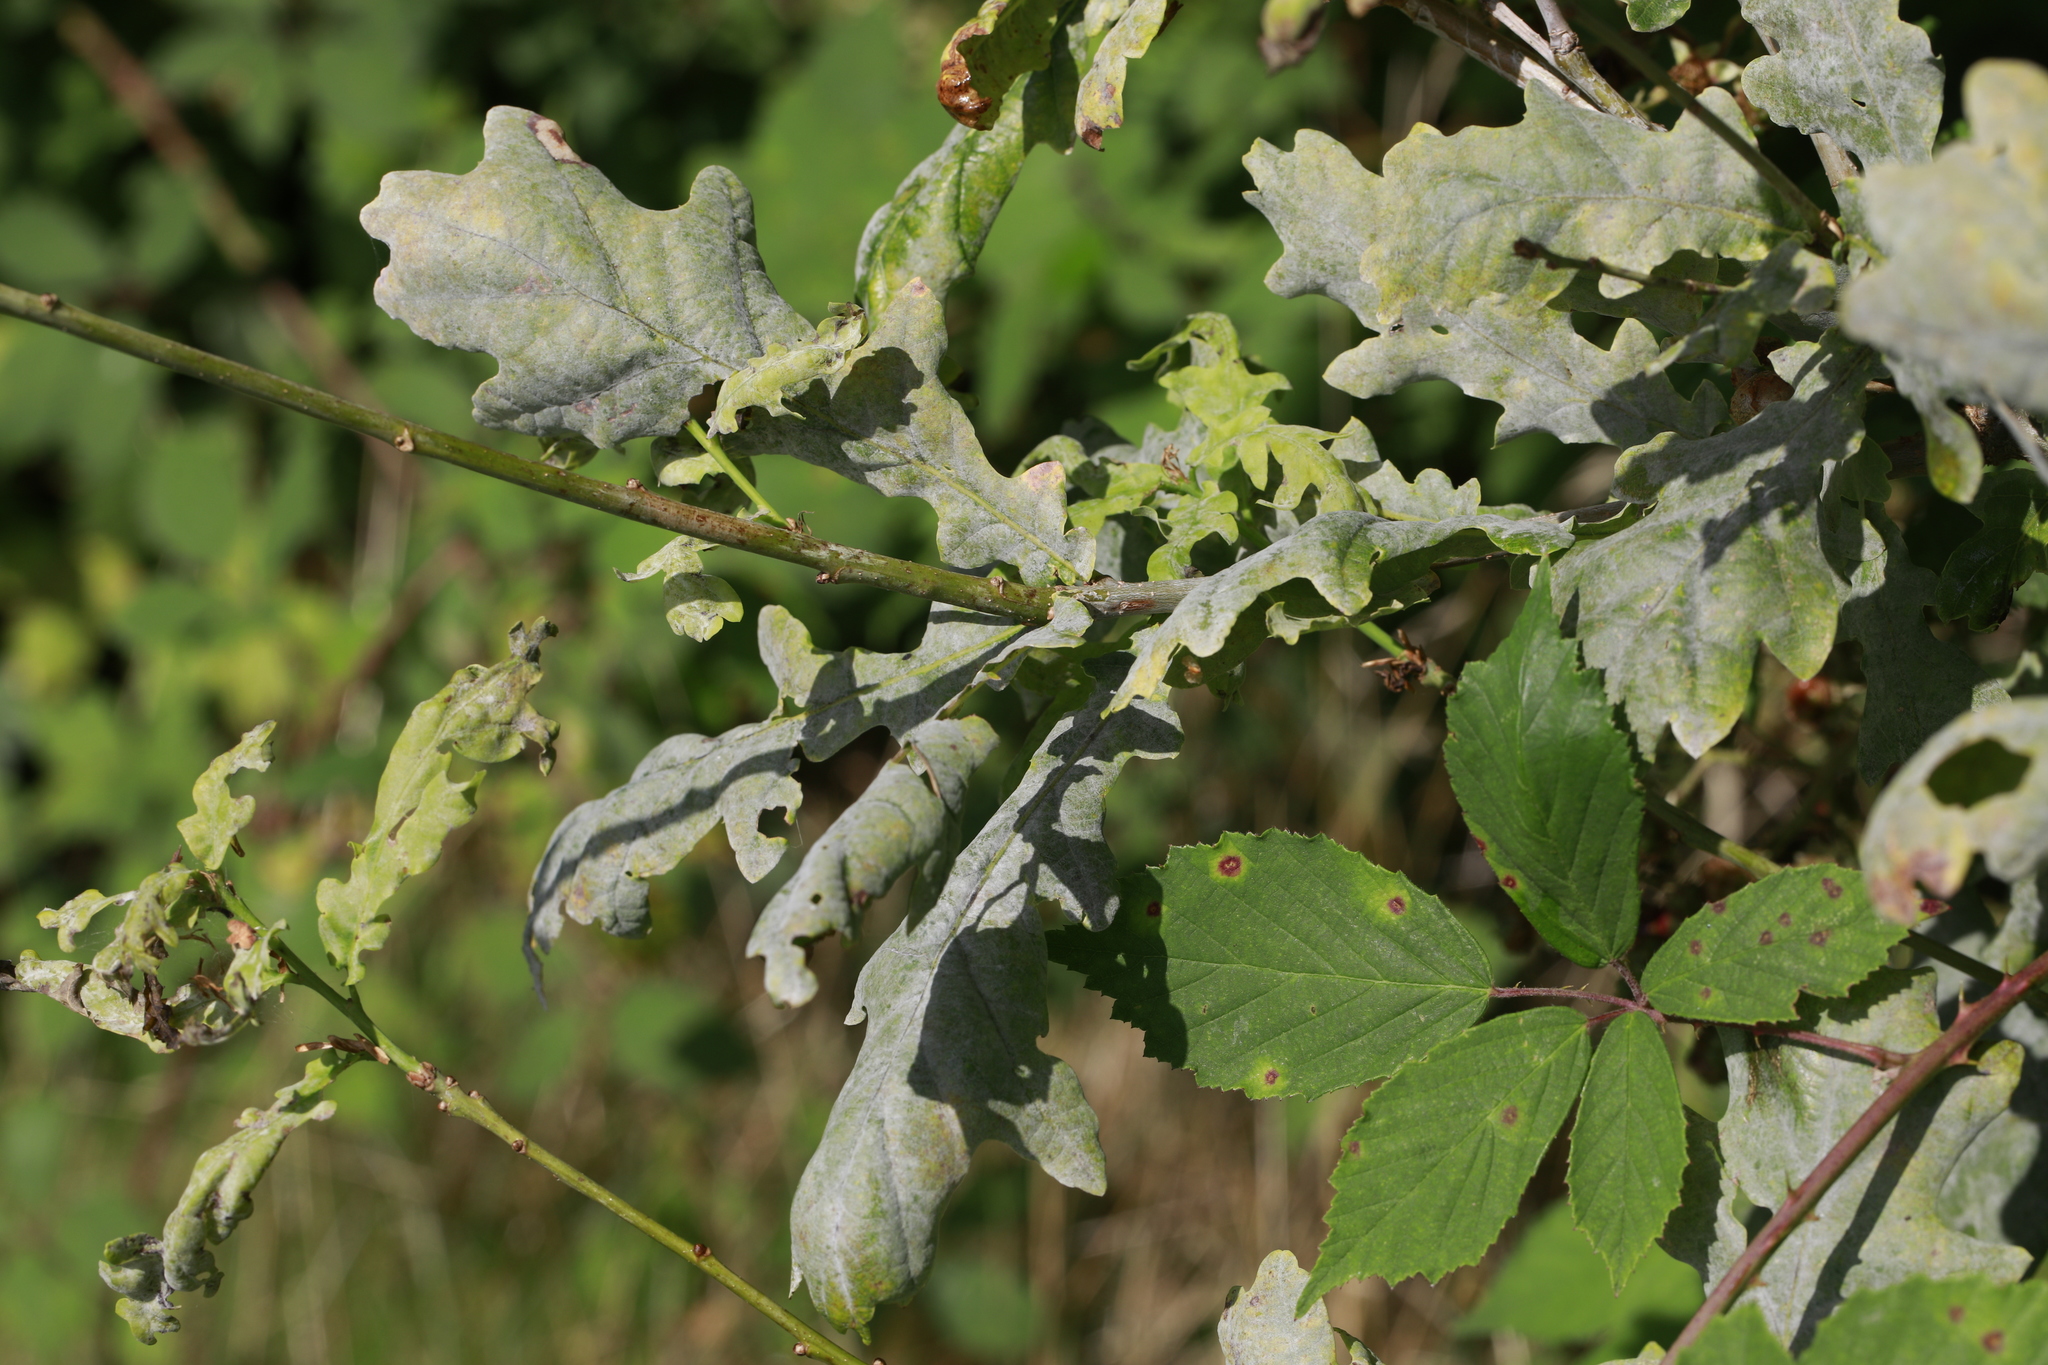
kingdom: Fungi
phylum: Ascomycota
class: Leotiomycetes
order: Helotiales
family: Erysiphaceae
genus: Erysiphe
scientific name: Erysiphe alphitoides
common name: Oak mildew
